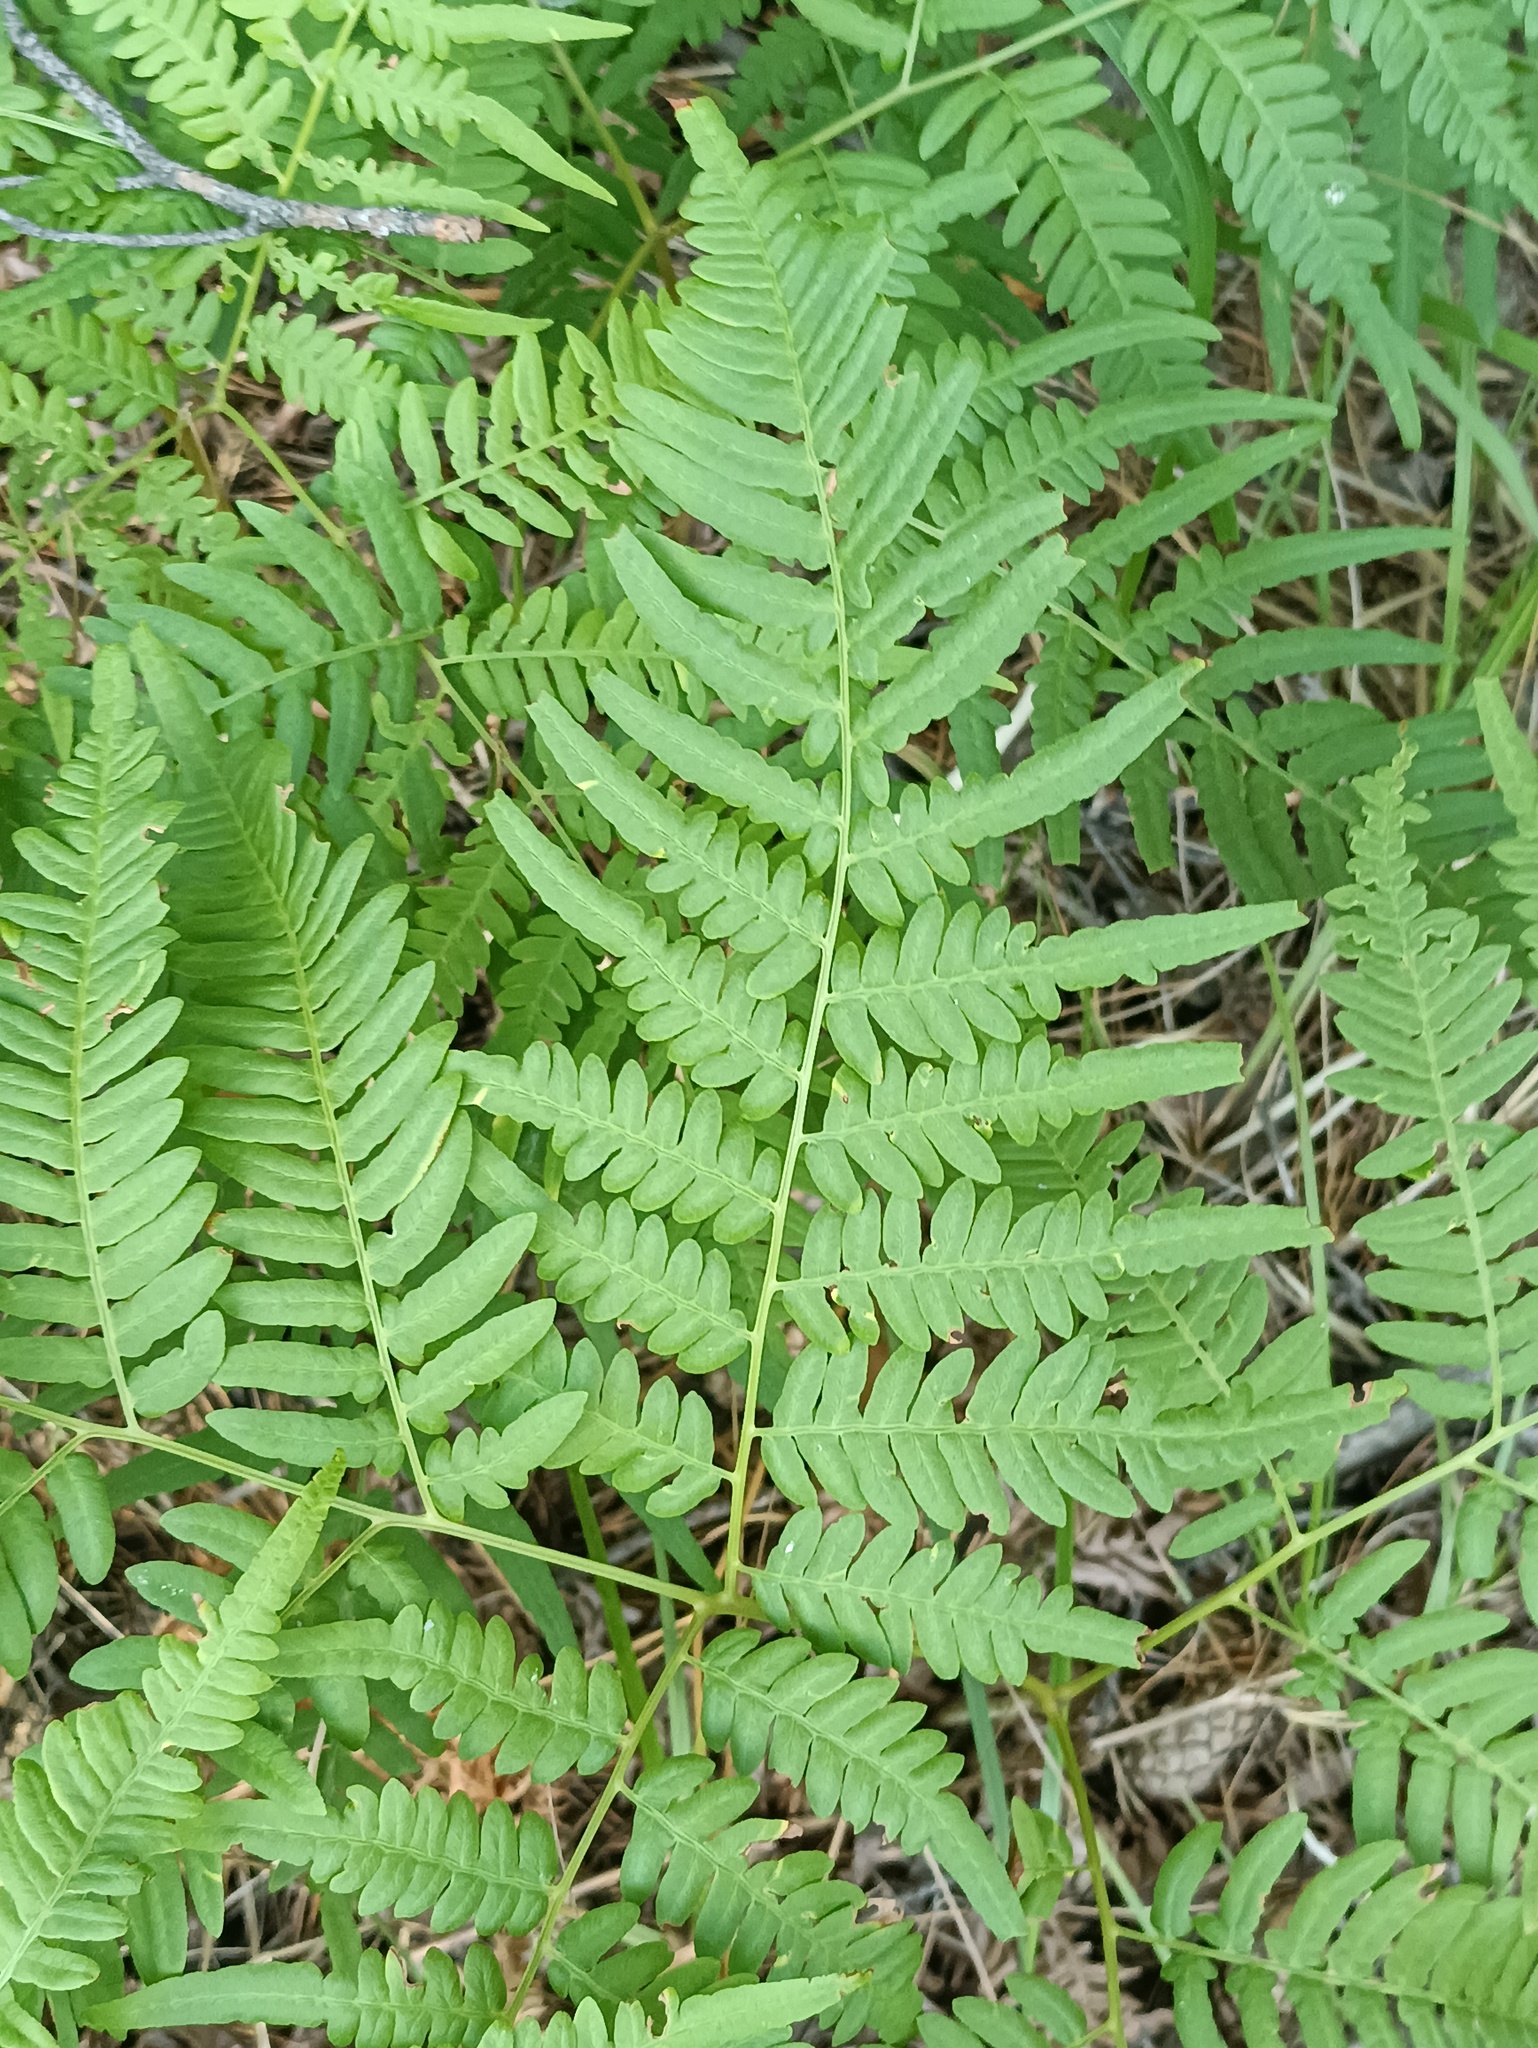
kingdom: Plantae
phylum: Tracheophyta
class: Polypodiopsida
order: Polypodiales
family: Dennstaedtiaceae
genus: Pteridium
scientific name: Pteridium aquilinum
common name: Bracken
